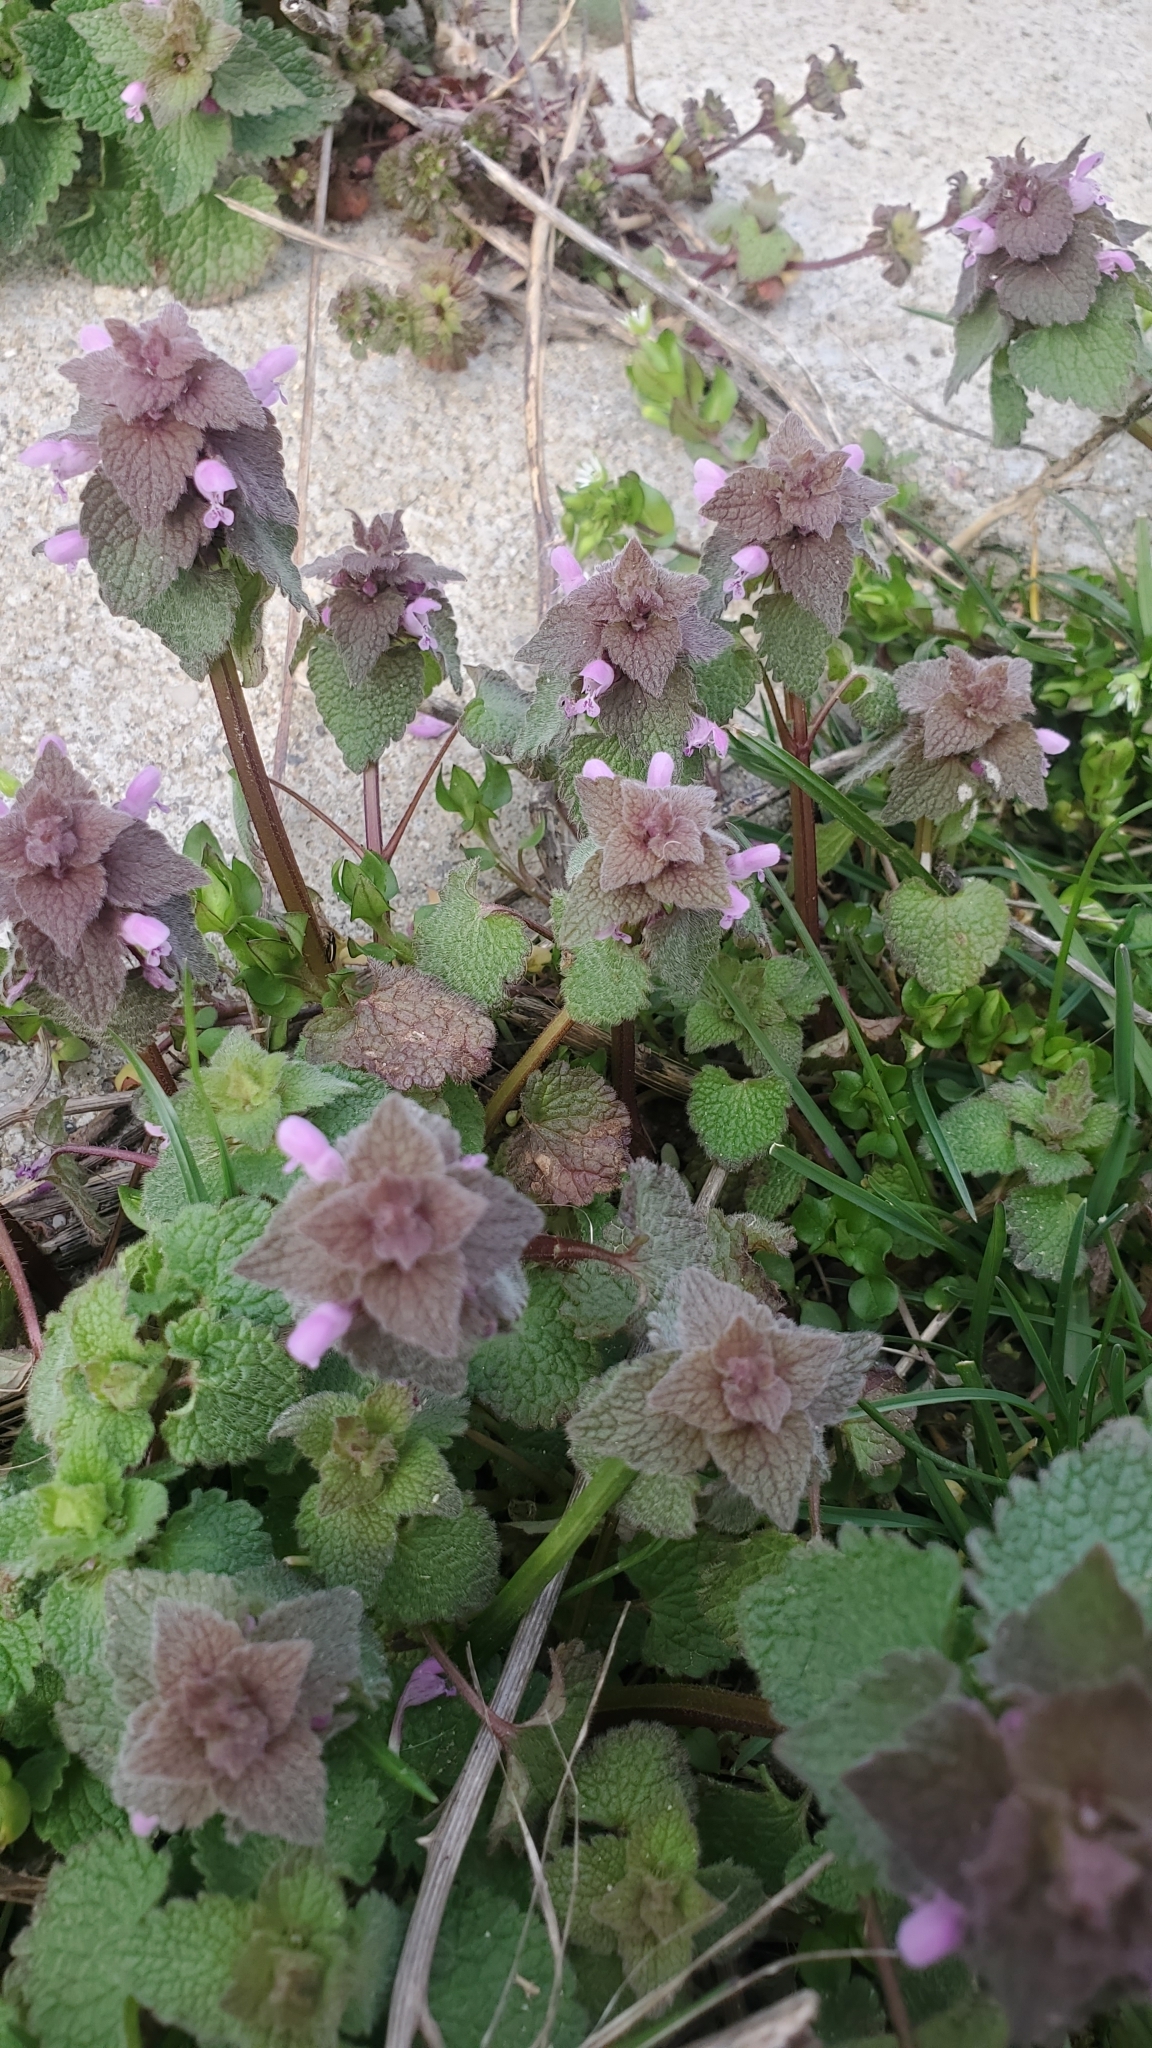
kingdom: Plantae
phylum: Tracheophyta
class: Magnoliopsida
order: Lamiales
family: Lamiaceae
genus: Lamium
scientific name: Lamium purpureum
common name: Red dead-nettle
